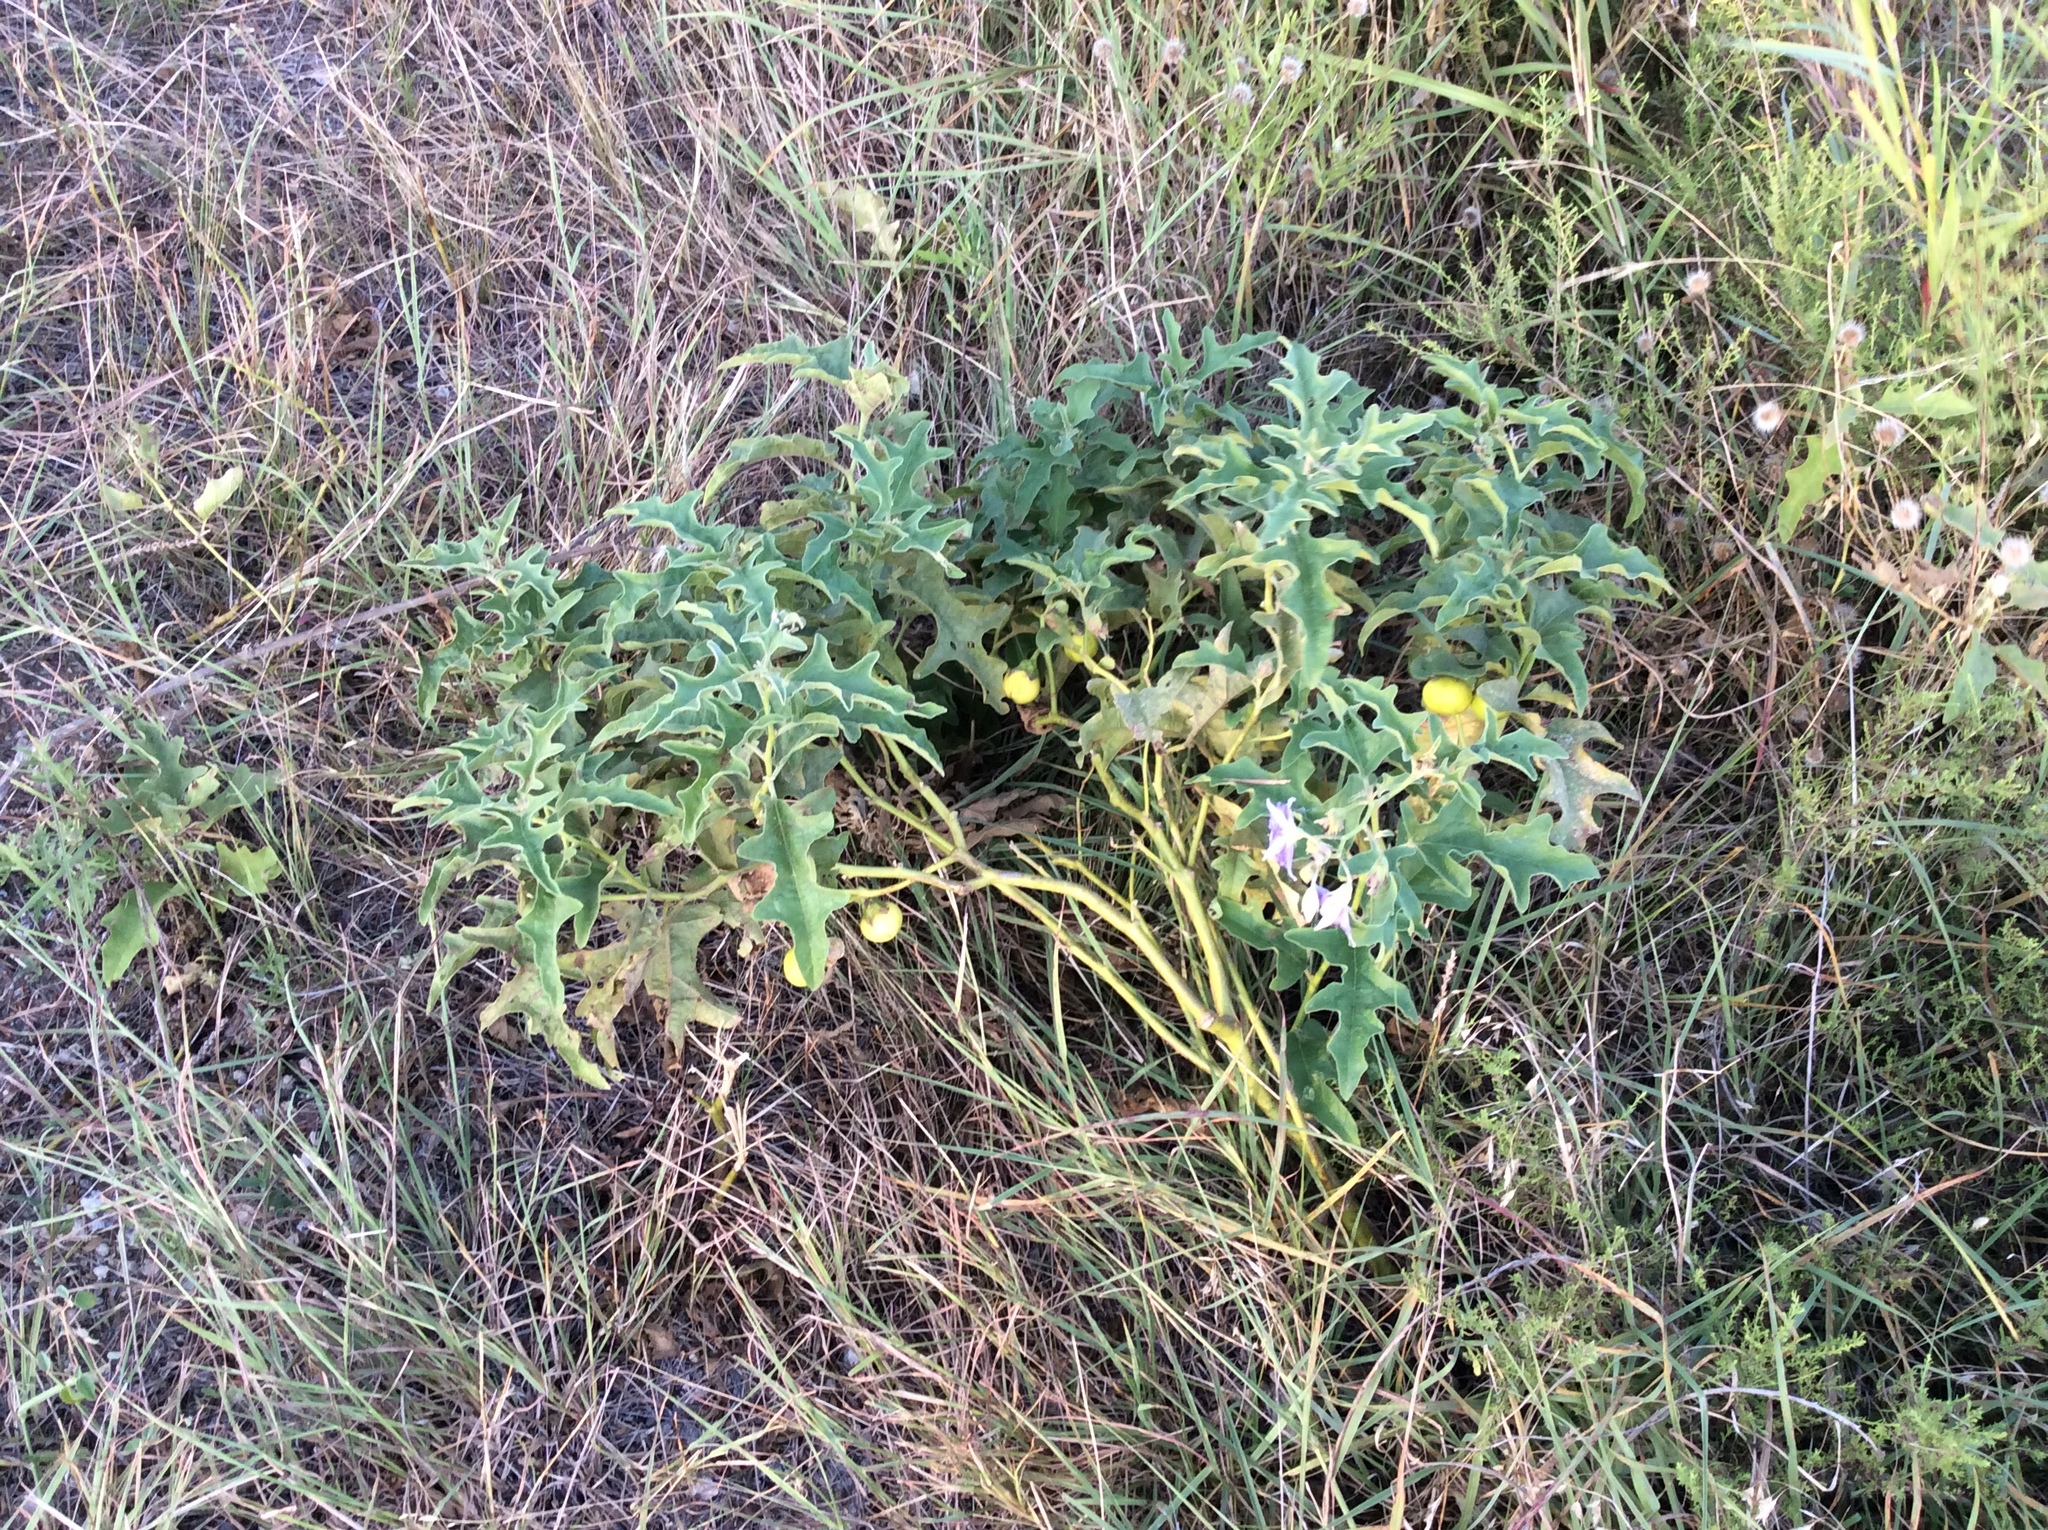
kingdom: Plantae
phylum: Tracheophyta
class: Magnoliopsida
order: Solanales
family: Solanaceae
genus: Solanum
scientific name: Solanum dimidiatum
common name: Carolina horse-nettle
